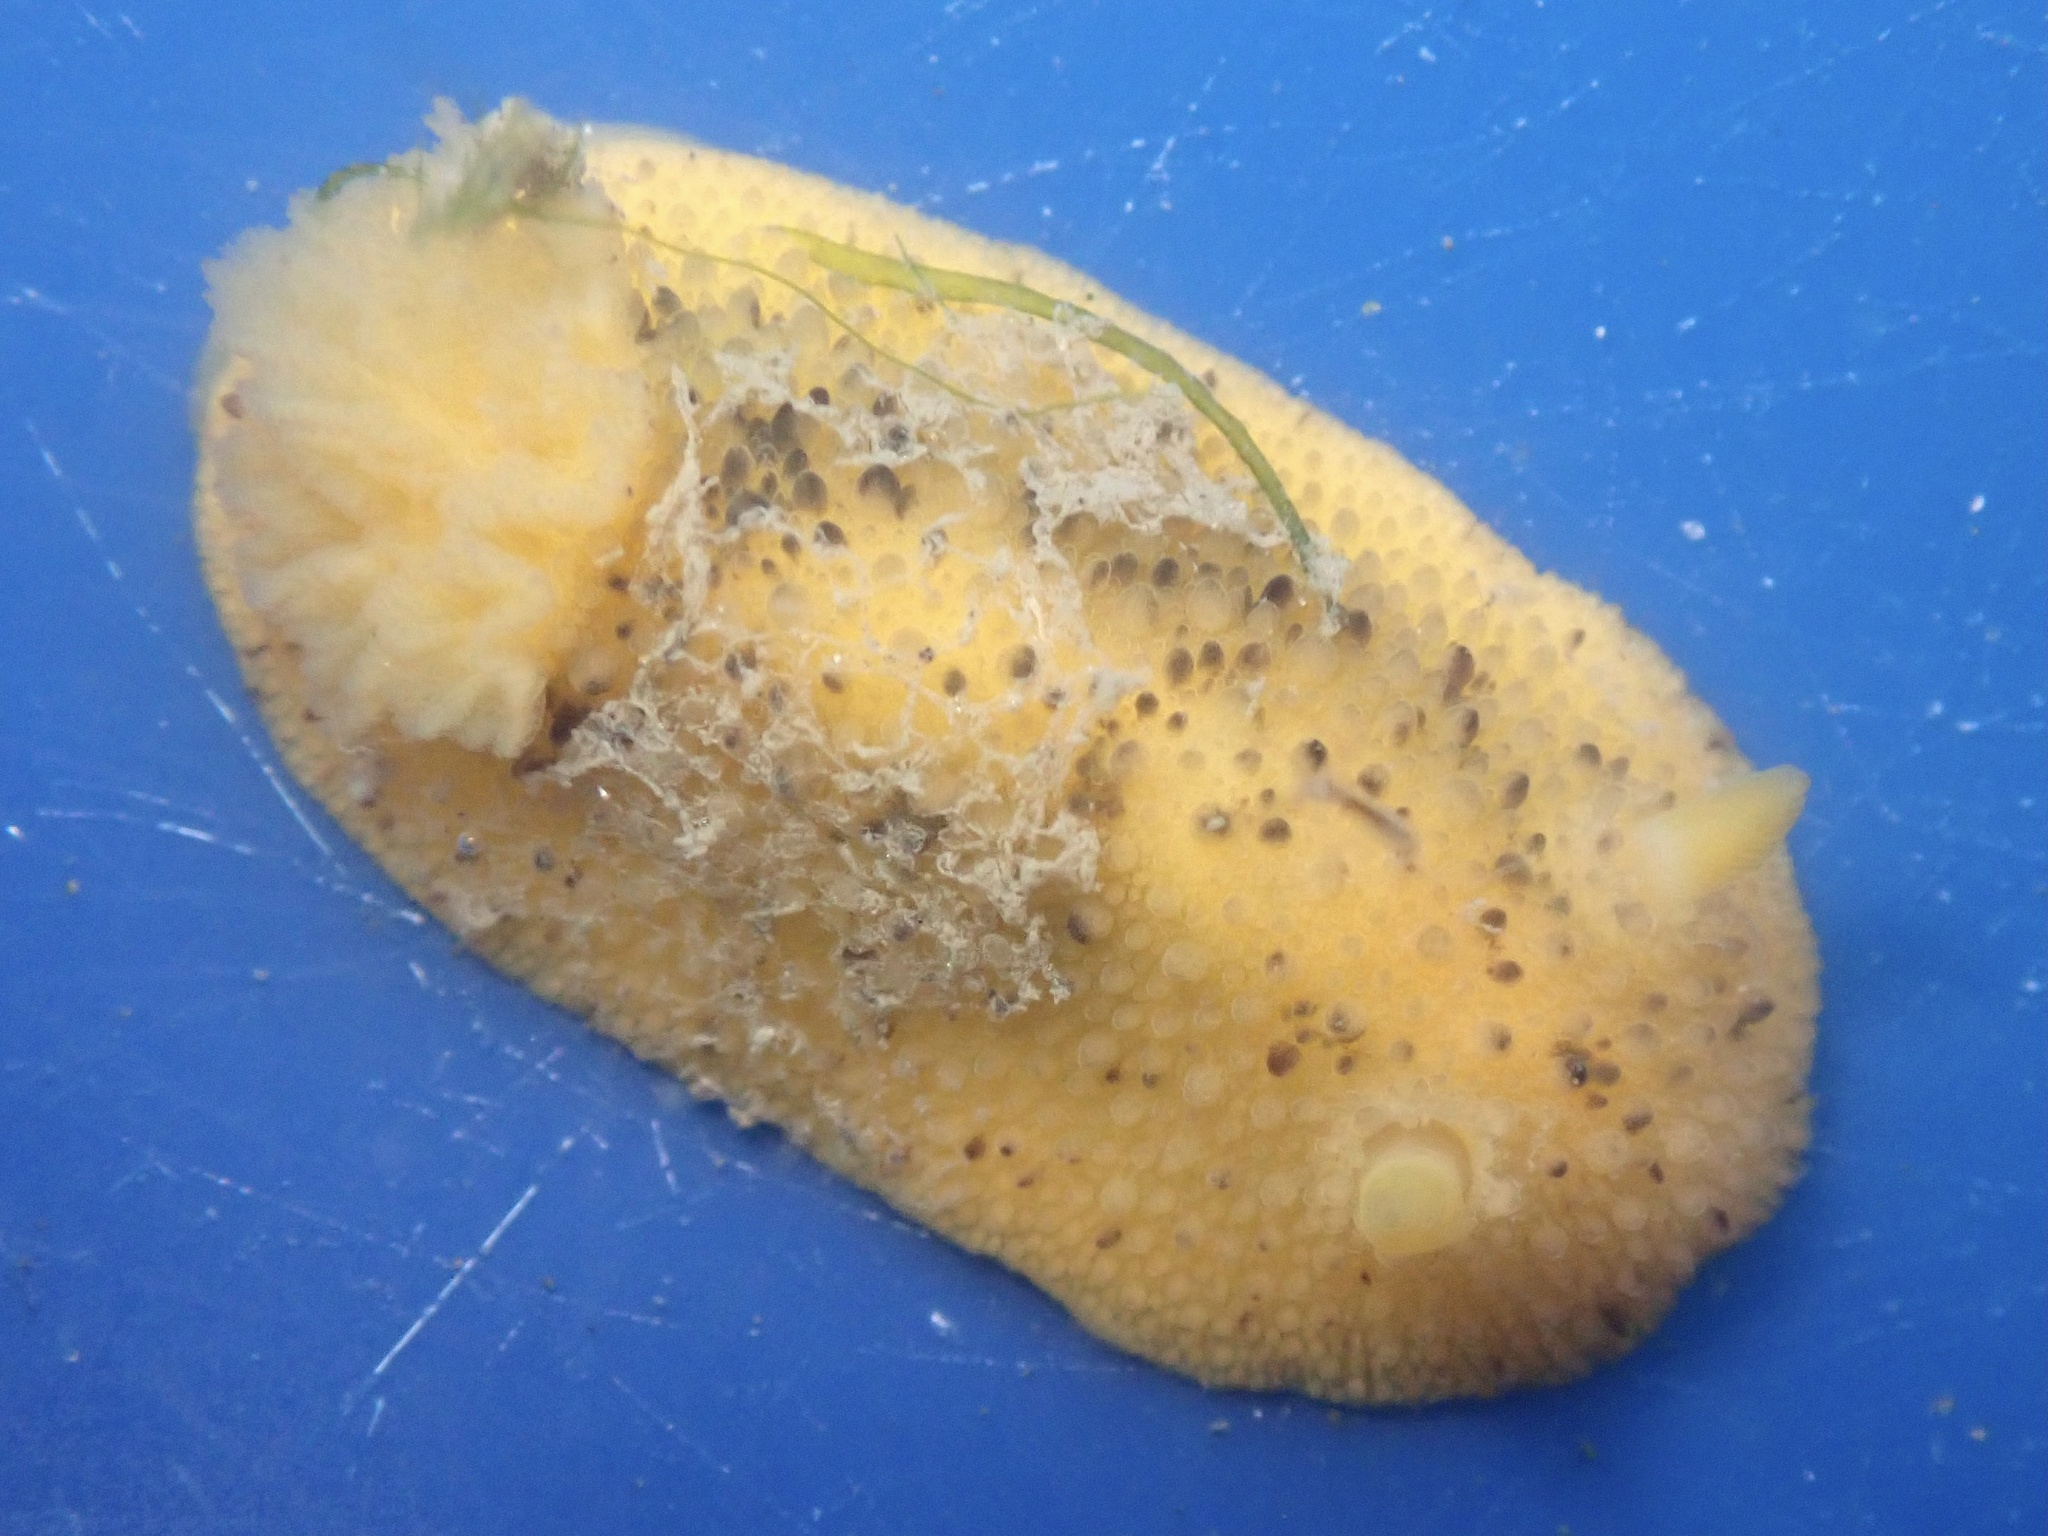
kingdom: Animalia
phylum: Mollusca
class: Gastropoda
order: Nudibranchia
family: Dorididae
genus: Doris
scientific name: Doris montereyensis
